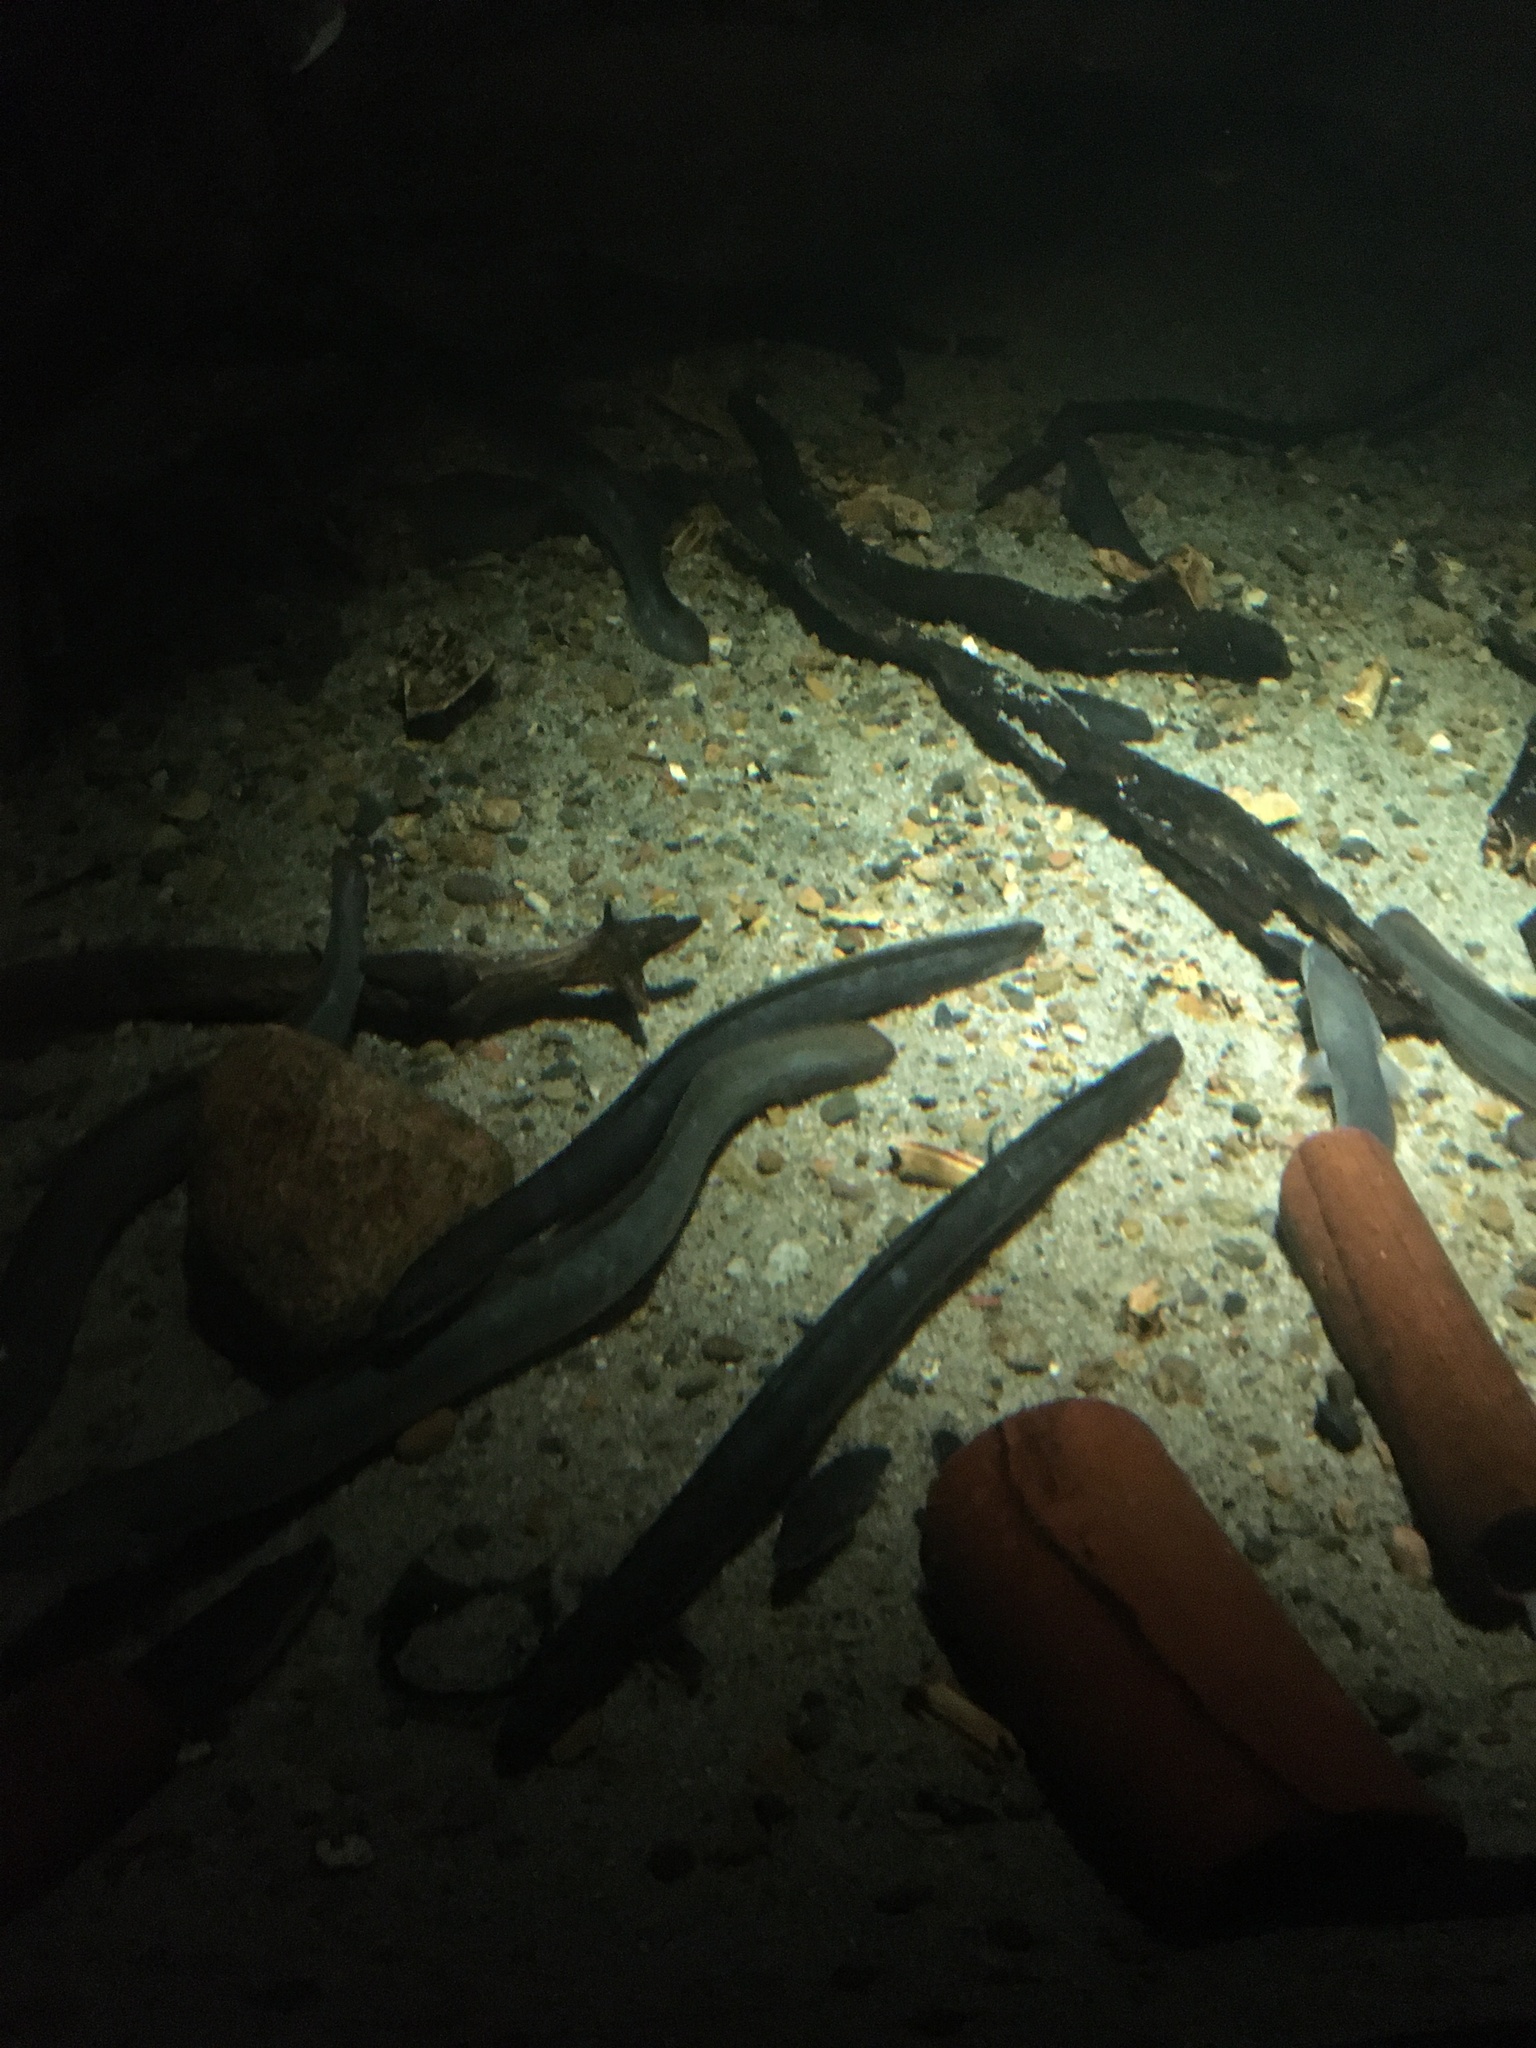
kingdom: Animalia
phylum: Chordata
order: Anguilliformes
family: Anguillidae
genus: Anguilla
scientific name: Anguilla anguilla
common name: European eel
